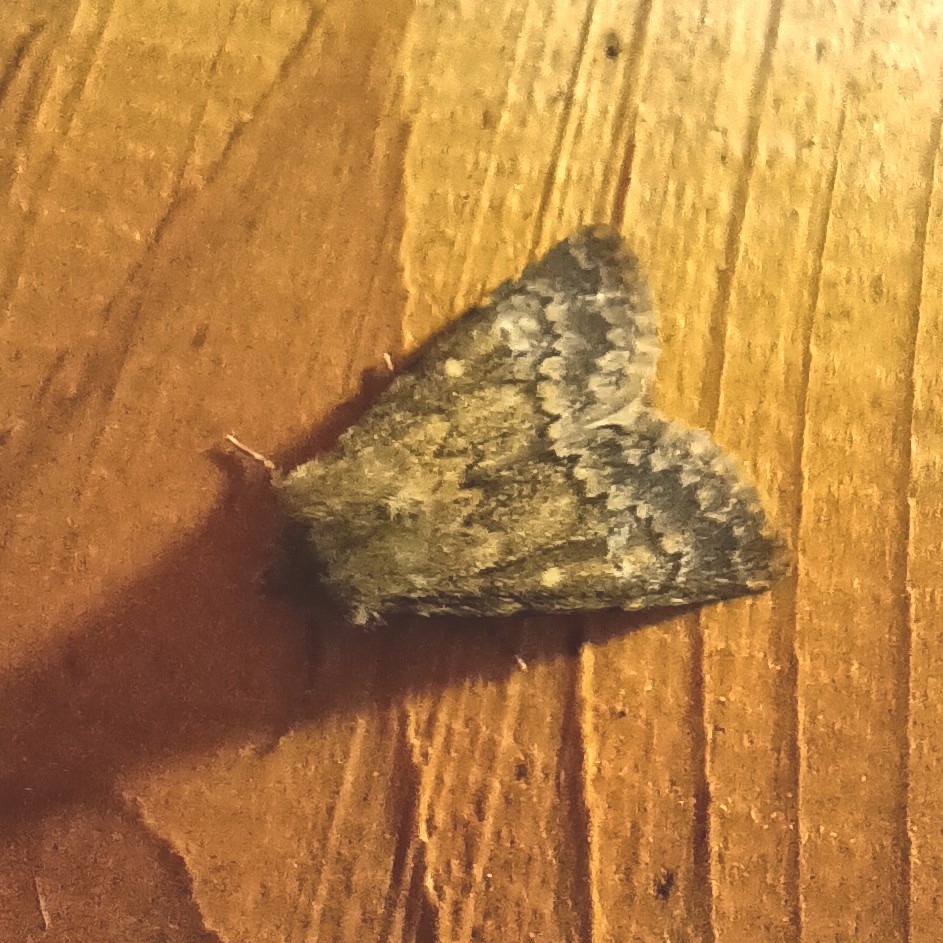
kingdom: Animalia
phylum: Arthropoda
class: Insecta
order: Lepidoptera
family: Noctuidae
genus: Dasypolia
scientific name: Dasypolia templi
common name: Brindled ochre
